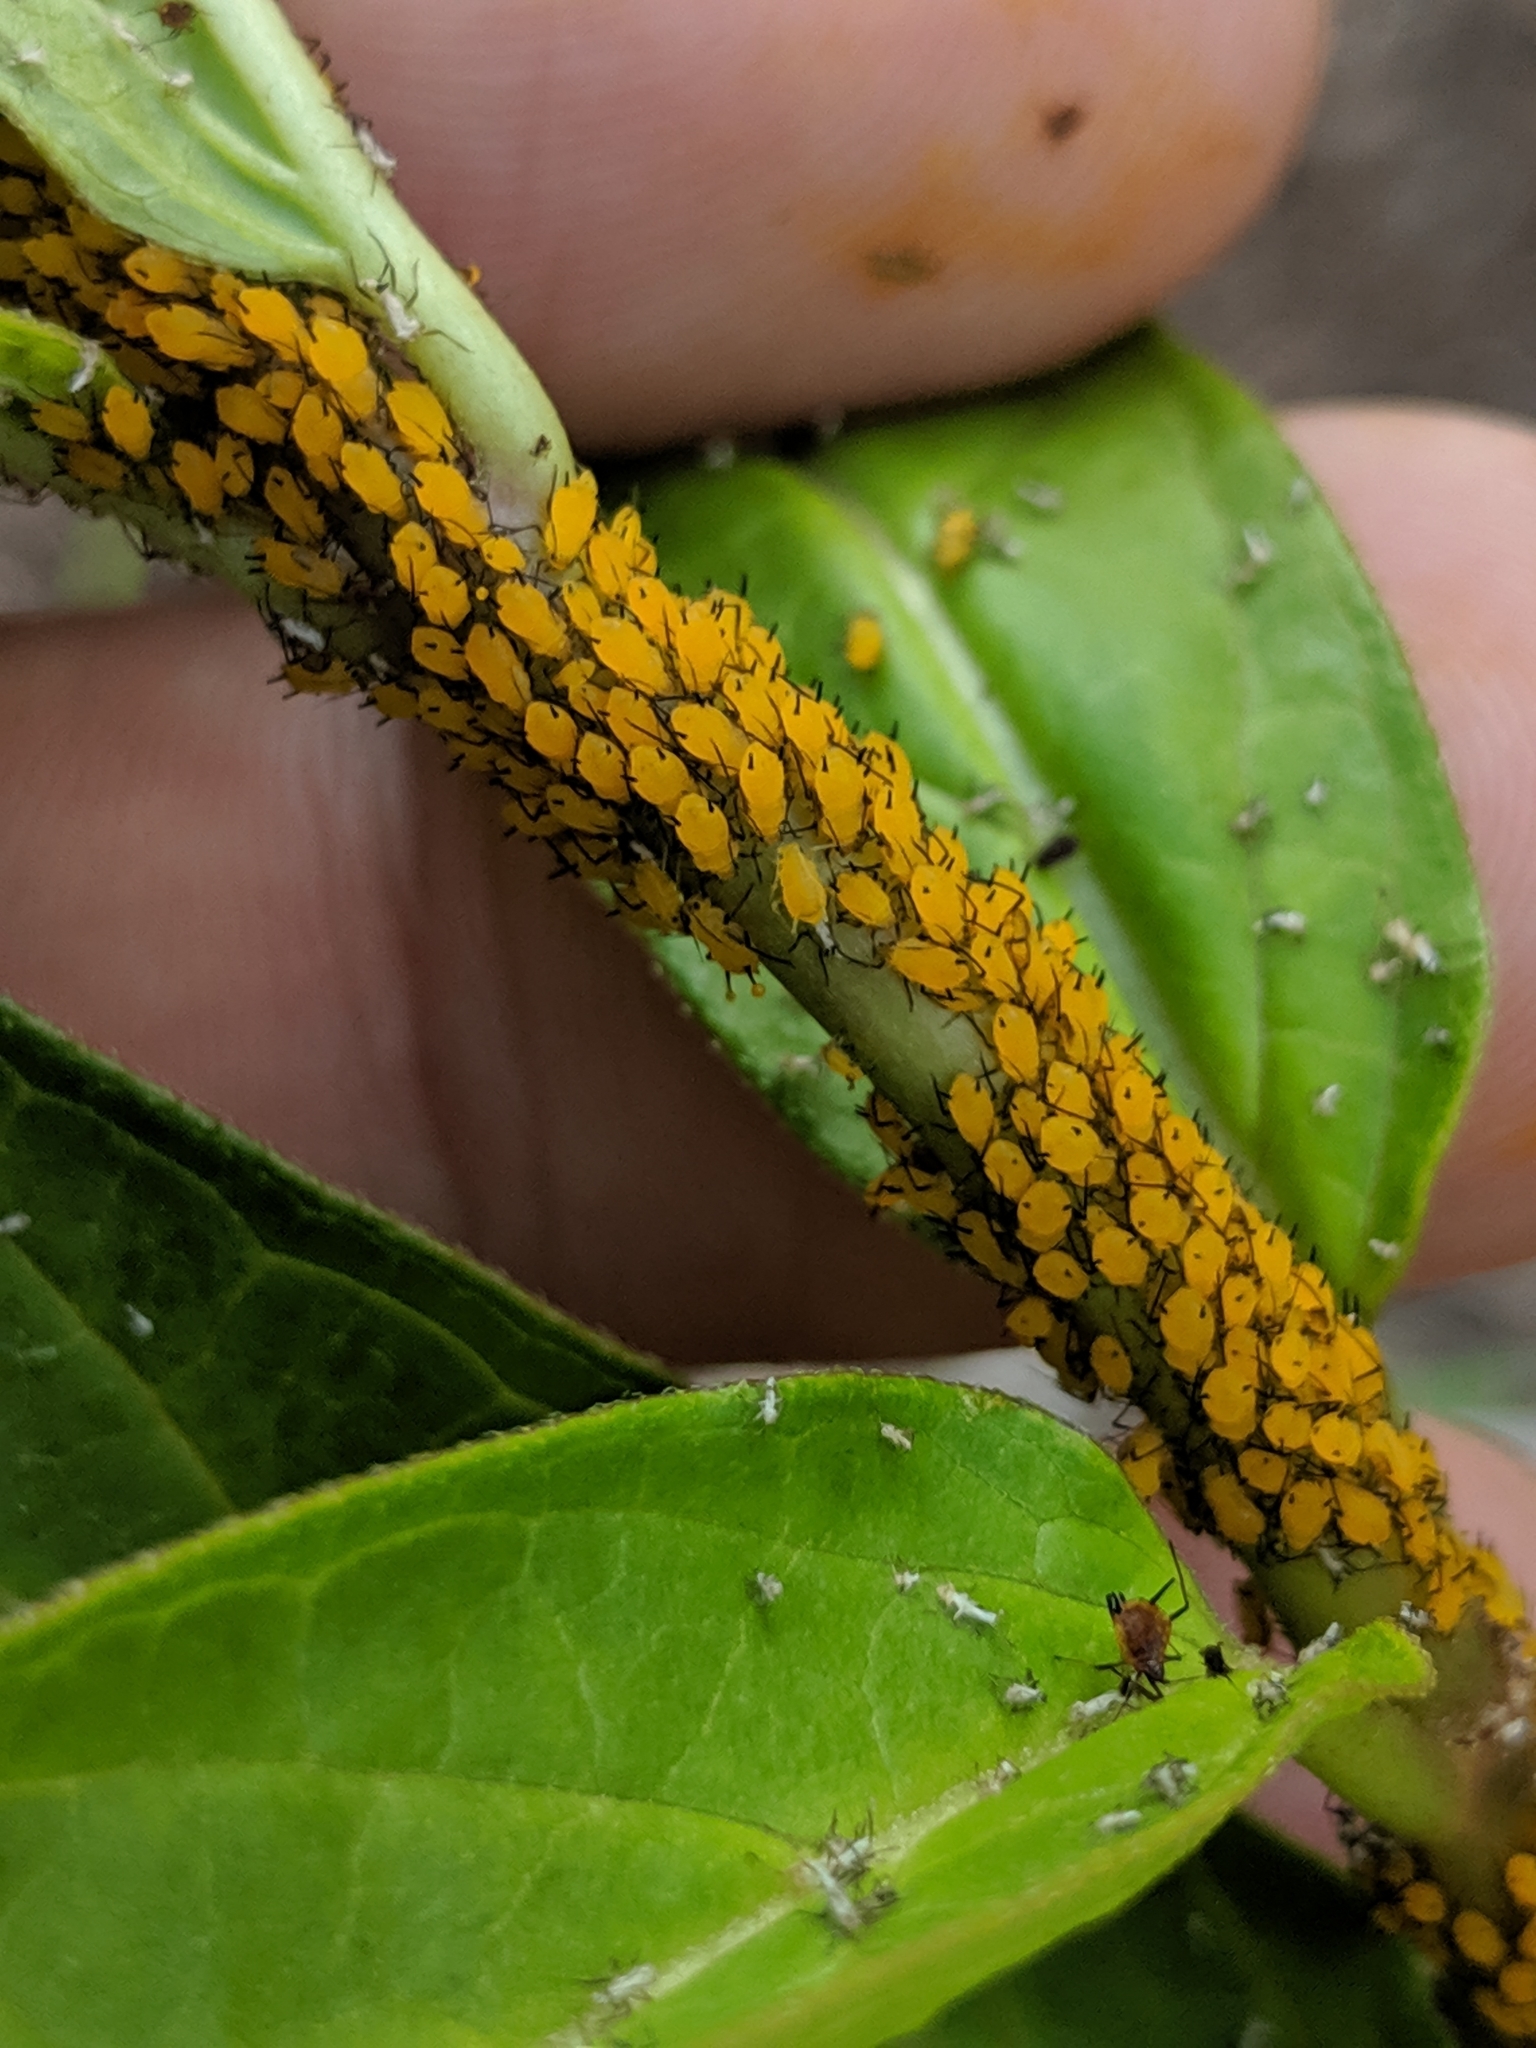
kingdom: Animalia
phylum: Arthropoda
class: Insecta
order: Hemiptera
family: Aphididae
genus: Aphis
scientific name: Aphis nerii
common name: Oleander aphid
